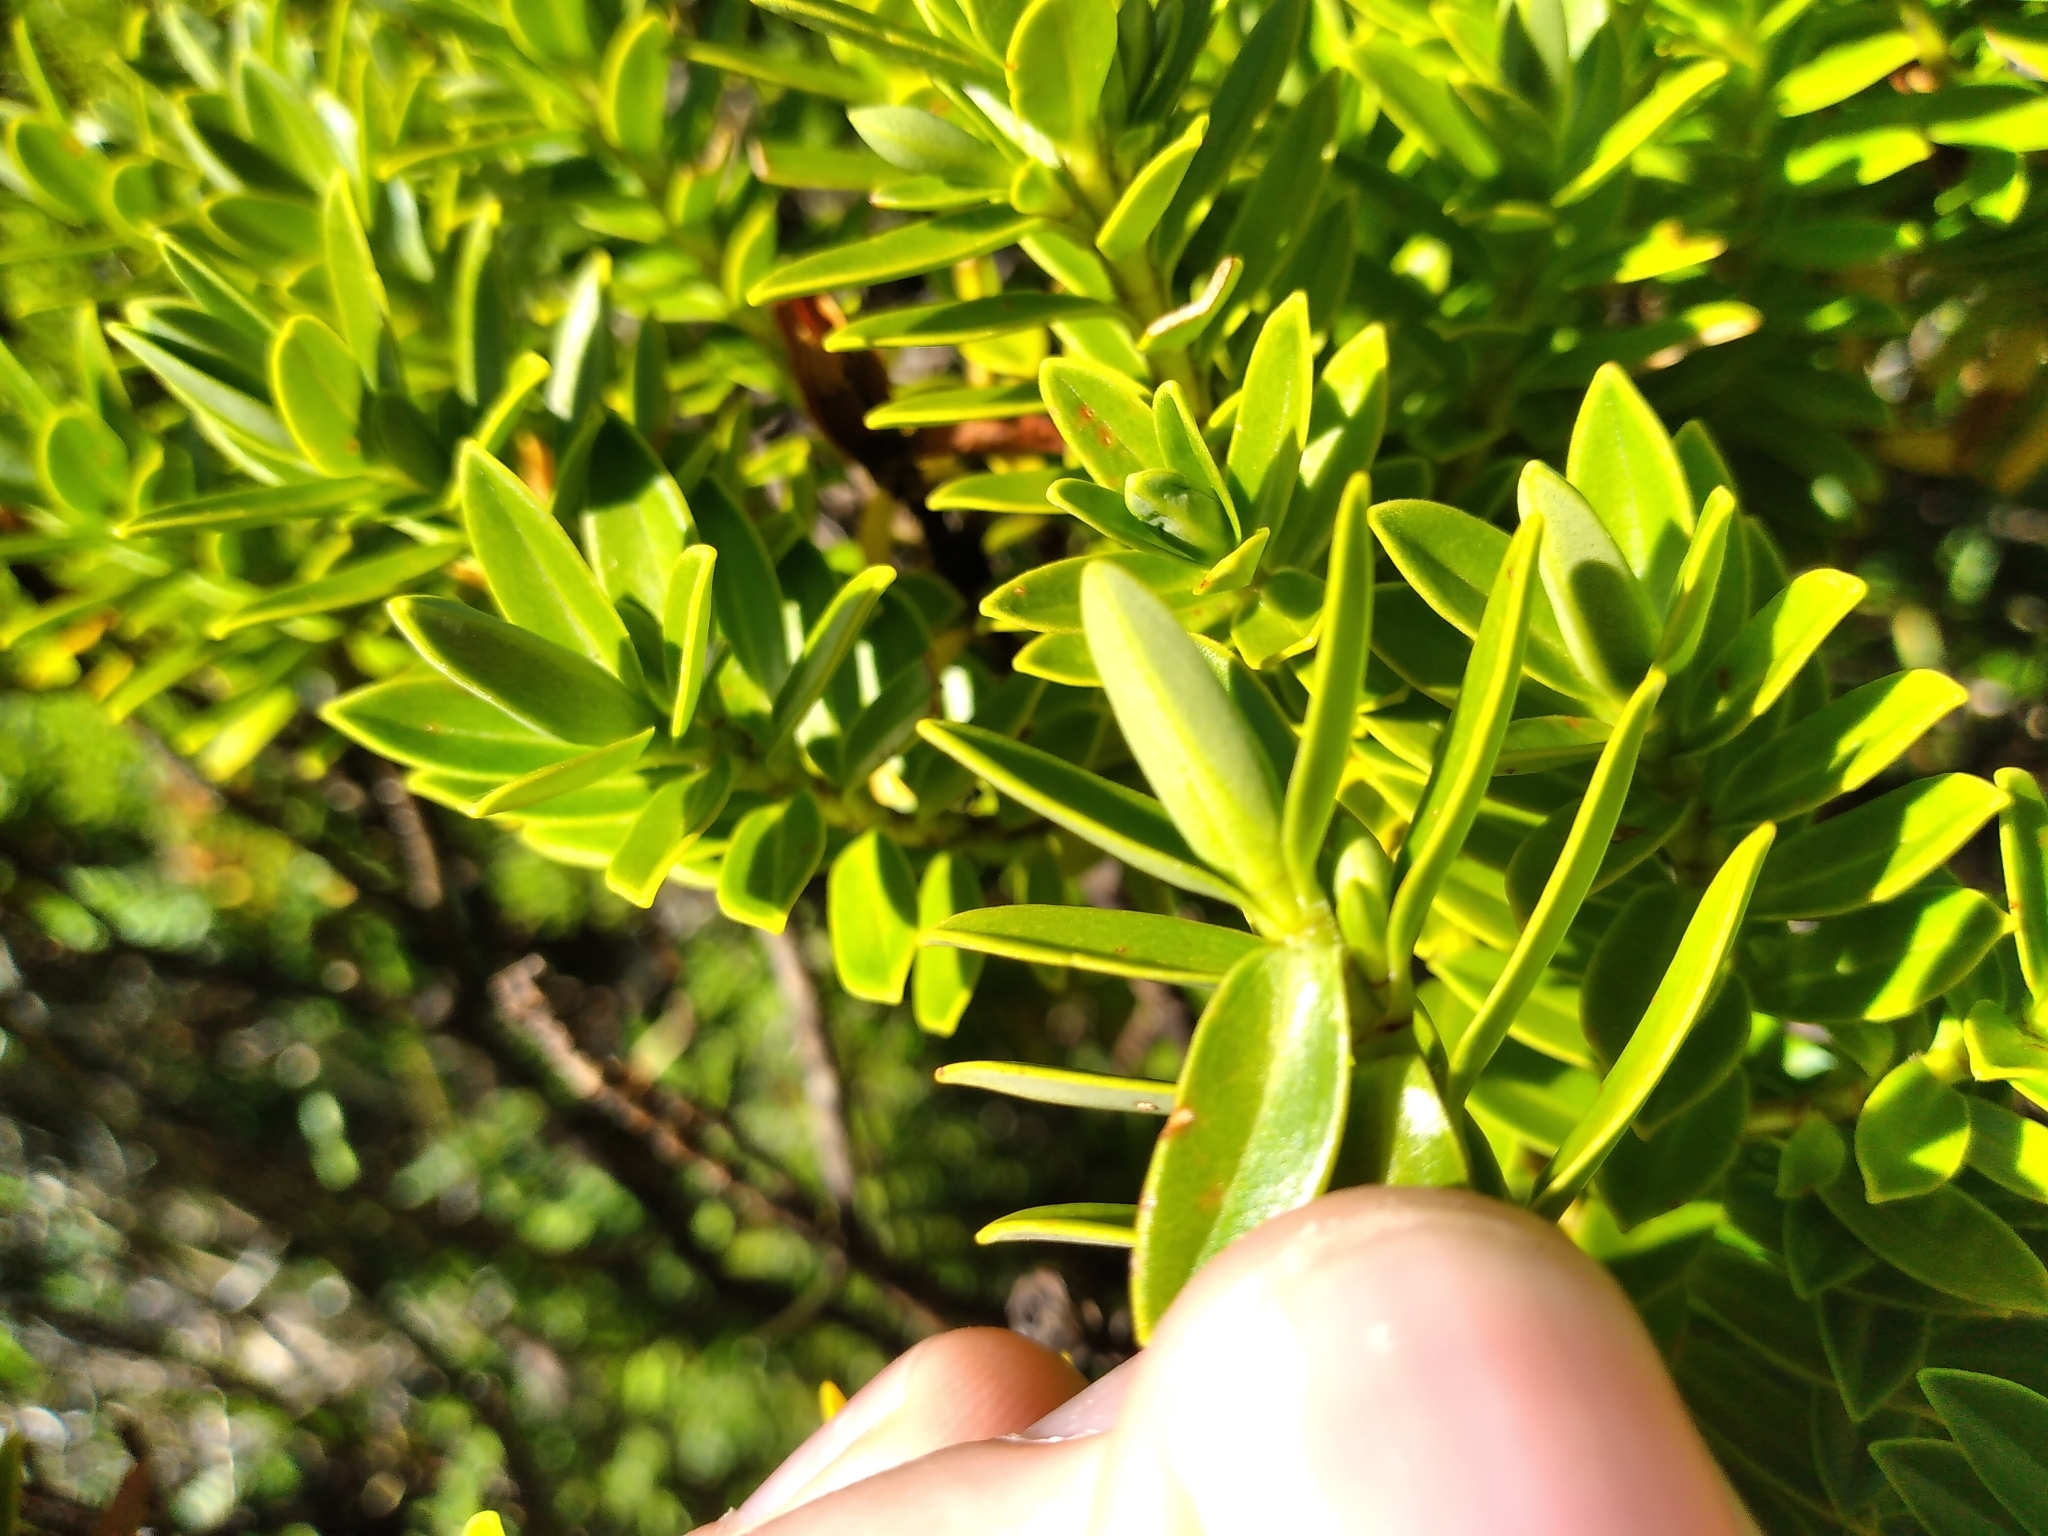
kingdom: Plantae
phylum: Tracheophyta
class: Magnoliopsida
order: Lamiales
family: Plantaginaceae
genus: Veronica
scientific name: Veronica subalpina
